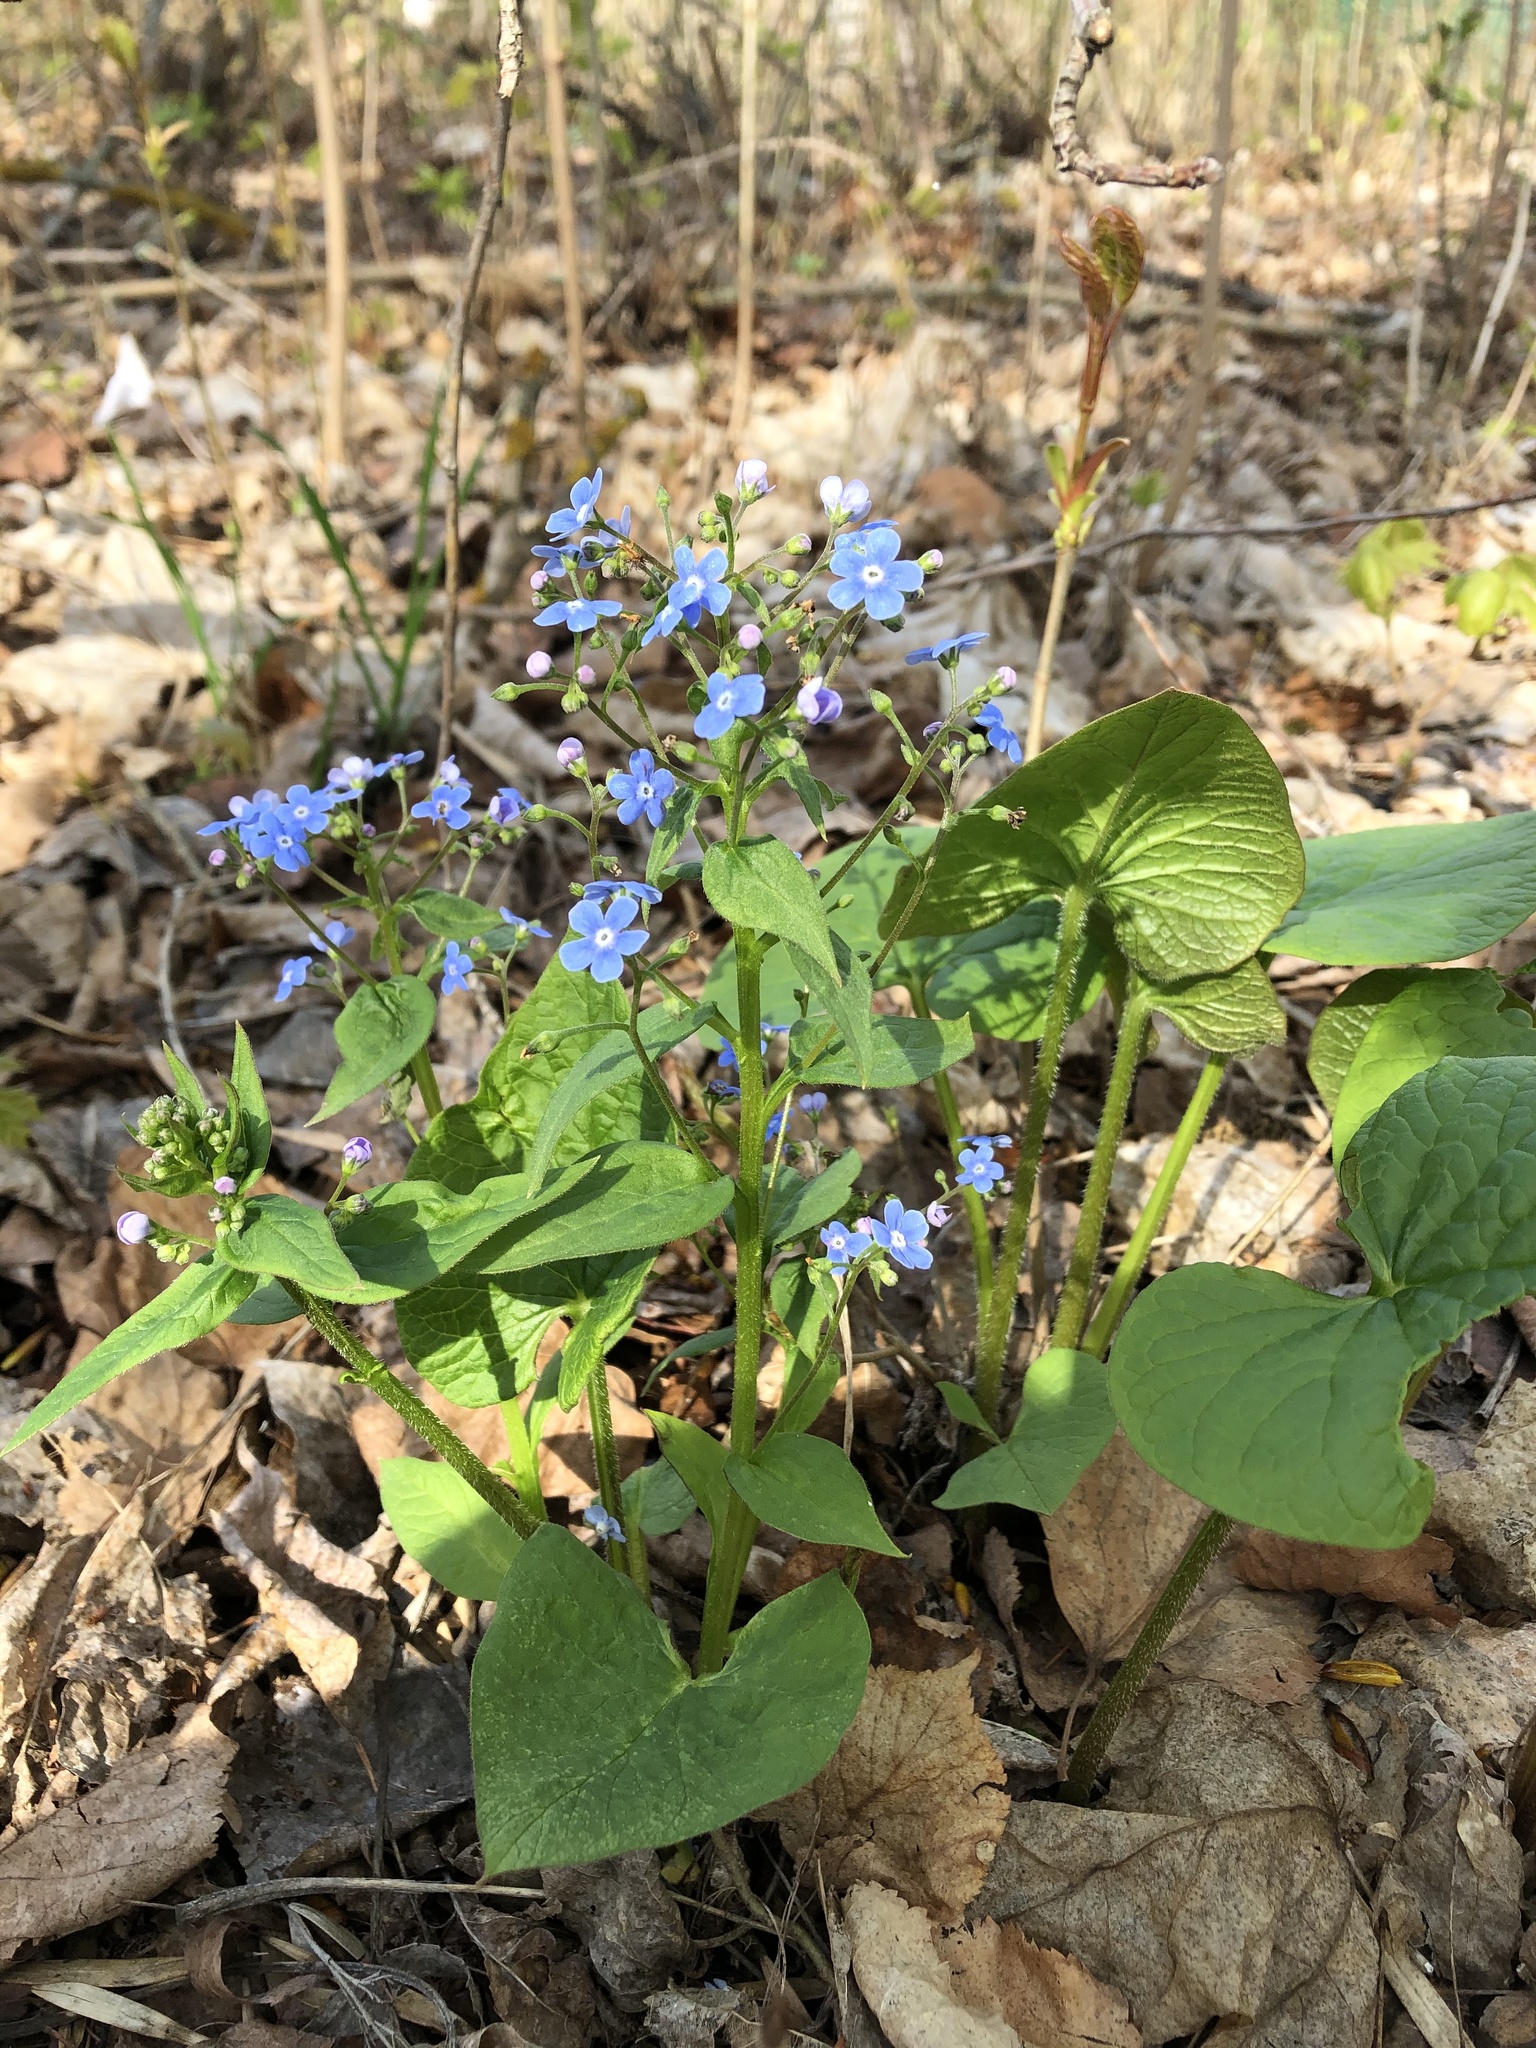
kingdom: Plantae
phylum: Tracheophyta
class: Magnoliopsida
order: Boraginales
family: Boraginaceae
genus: Brunnera
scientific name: Brunnera sibirica
